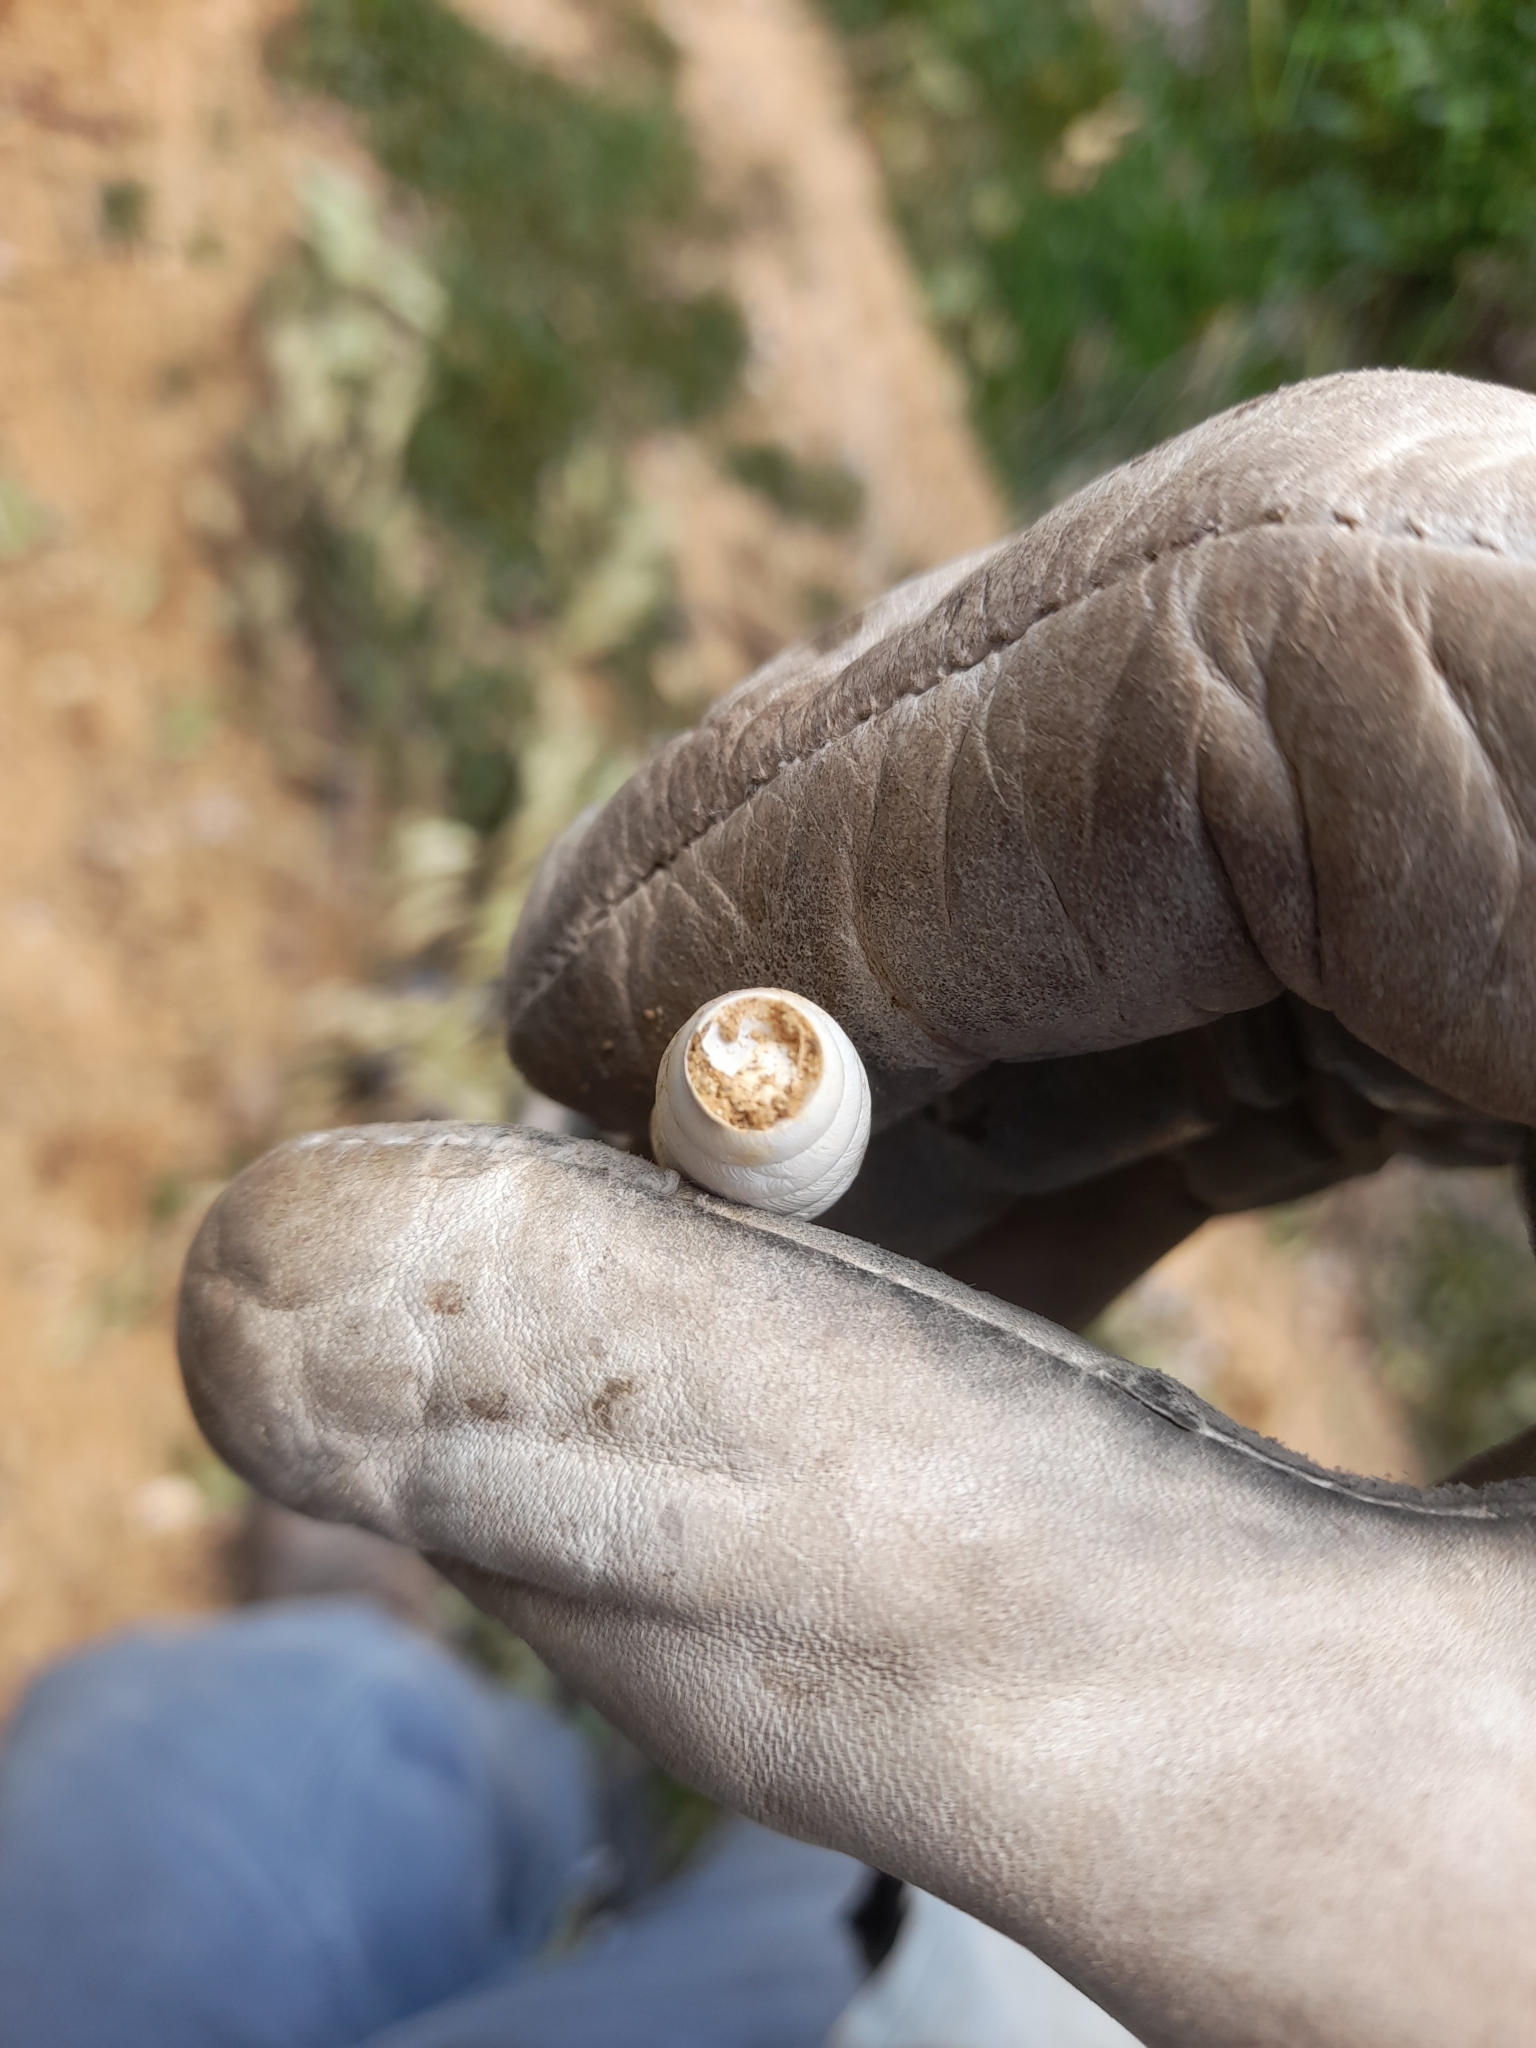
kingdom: Animalia
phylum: Mollusca
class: Gastropoda
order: Stylommatophora
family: Achatinidae
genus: Rumina
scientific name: Rumina decollata
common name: Decollate snail
